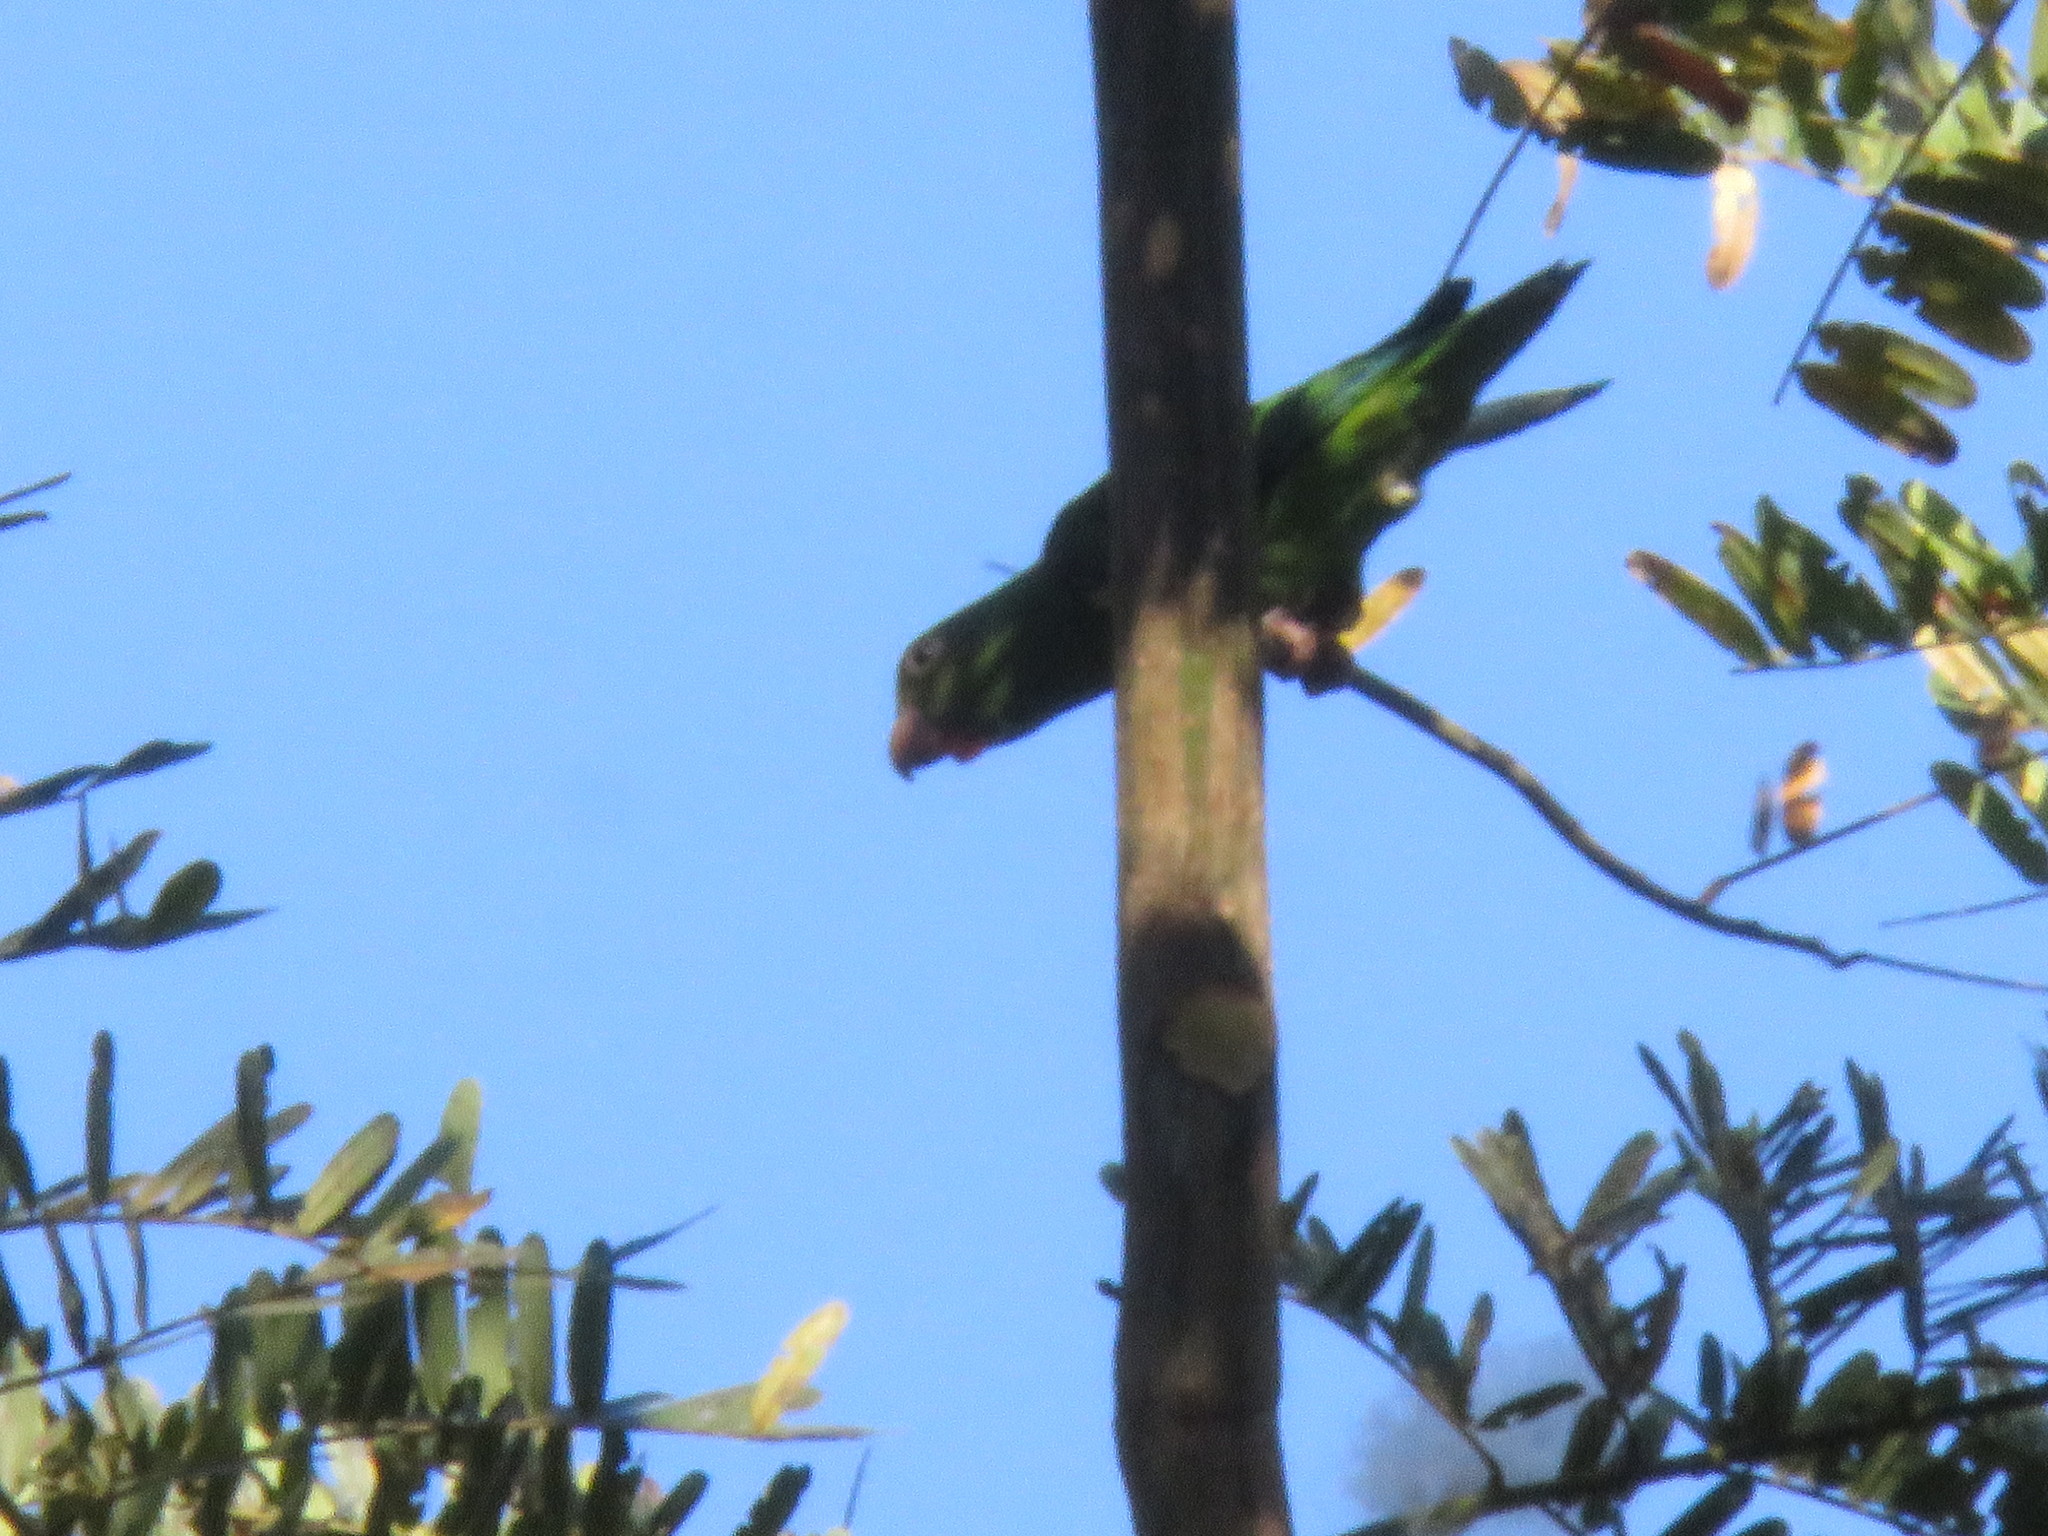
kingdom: Animalia
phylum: Chordata
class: Aves
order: Psittaciformes
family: Psittacidae
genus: Brotogeris
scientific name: Brotogeris cyanoptera
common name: Cobalt-winged parakeet
